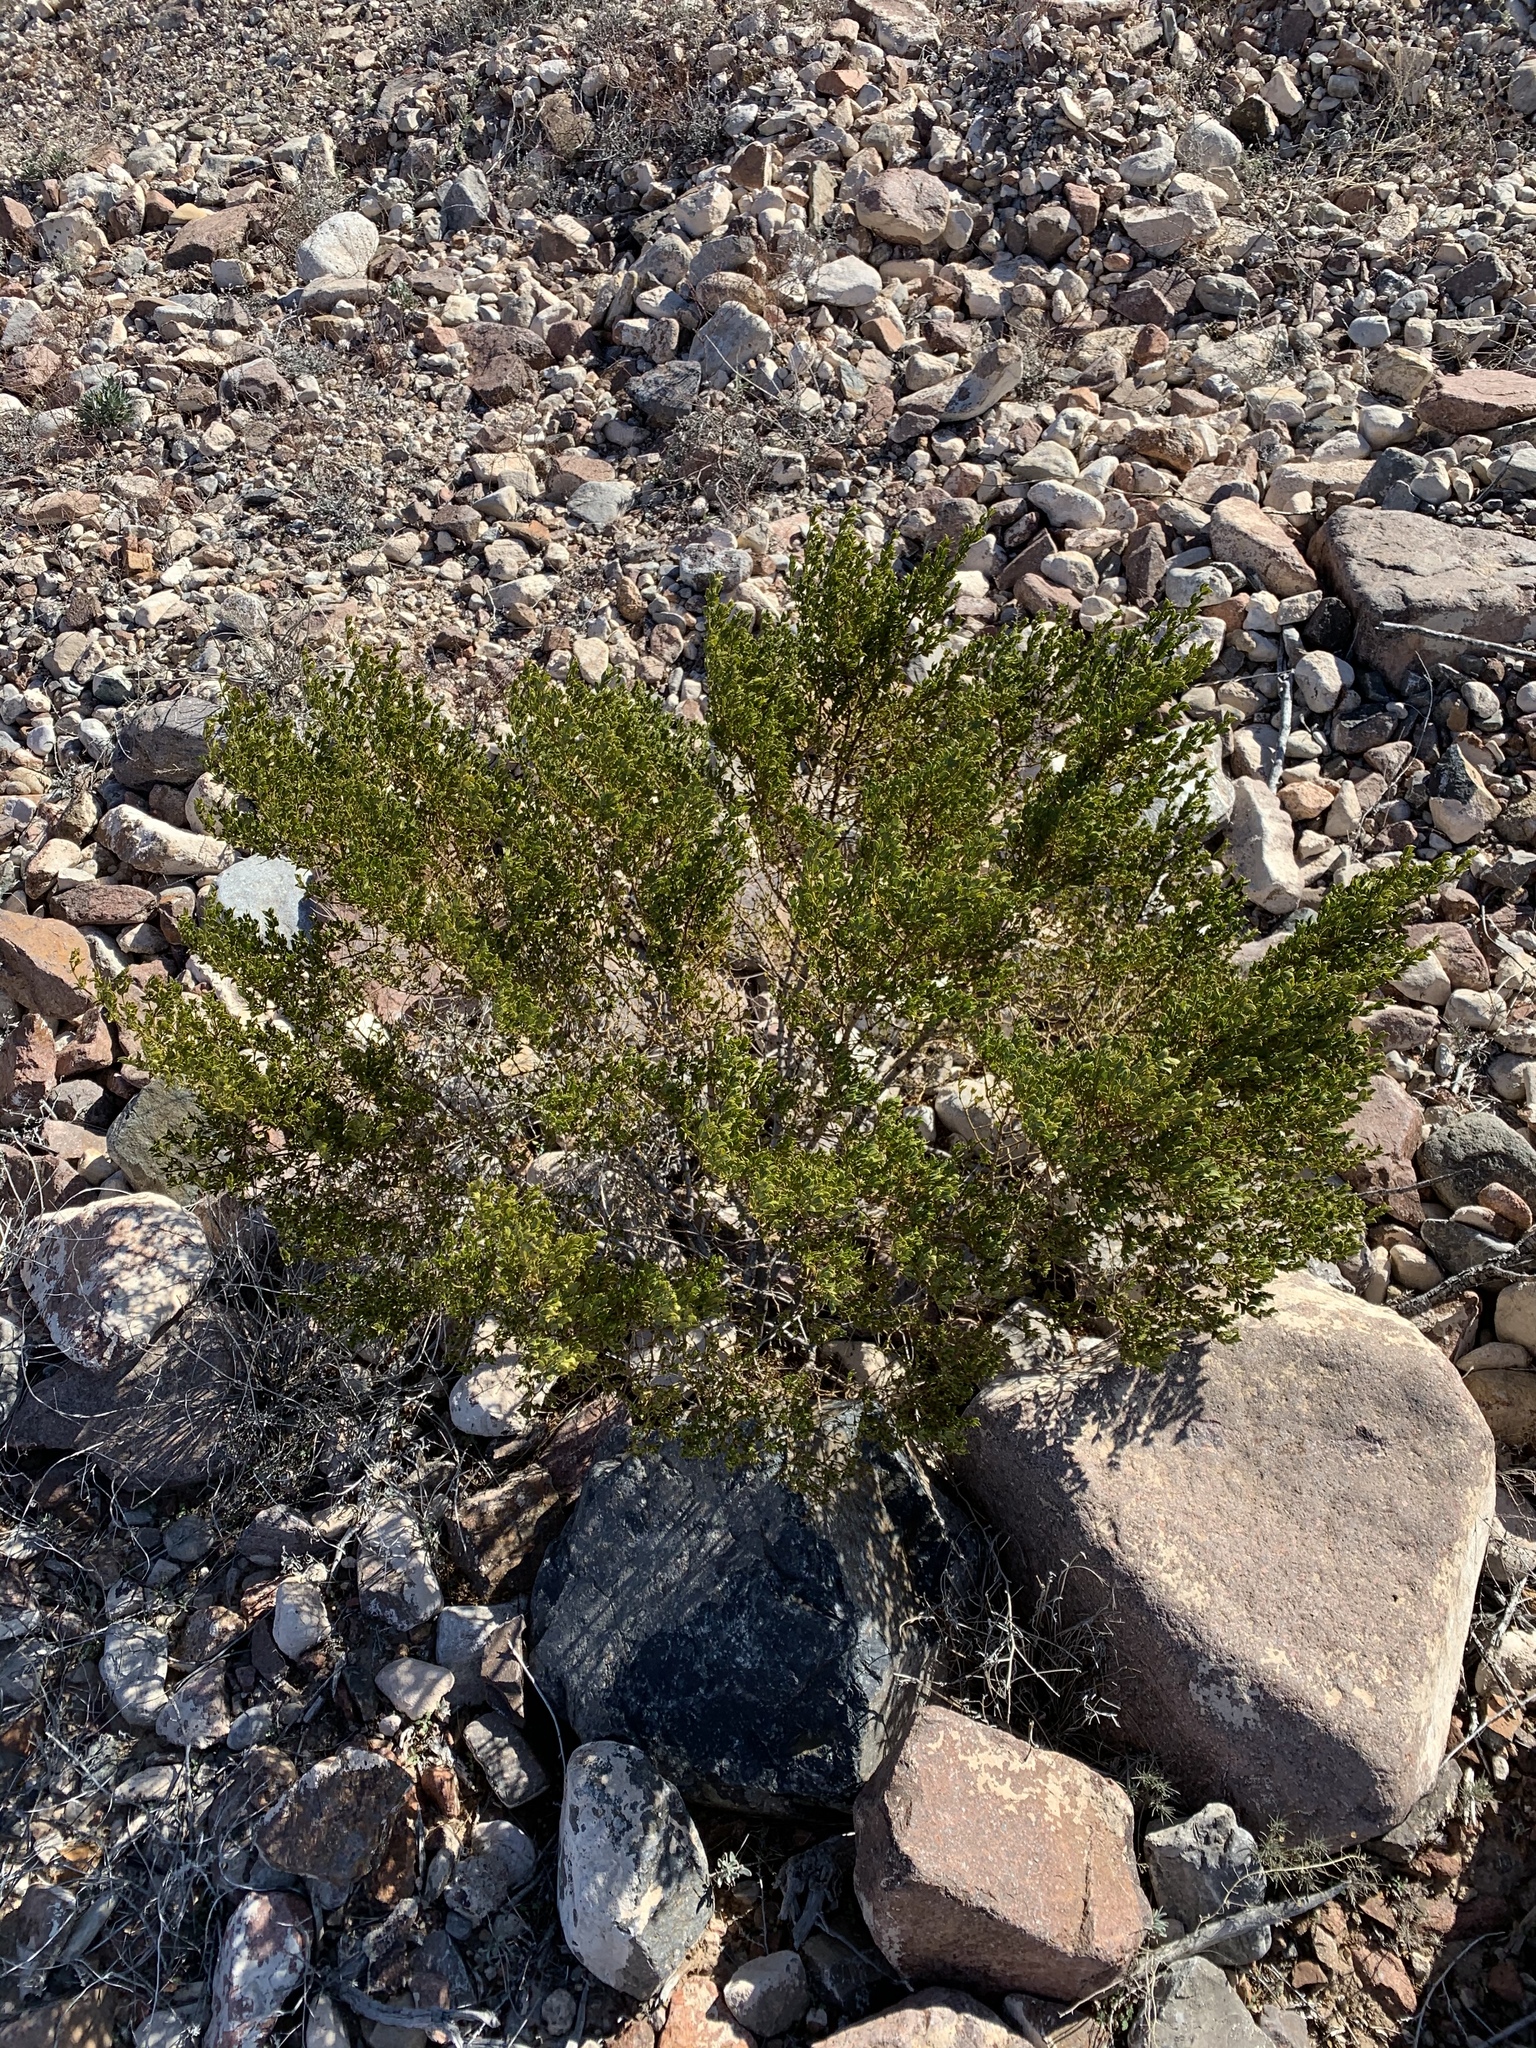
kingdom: Plantae
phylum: Tracheophyta
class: Magnoliopsida
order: Zygophyllales
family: Zygophyllaceae
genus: Larrea
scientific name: Larrea tridentata
